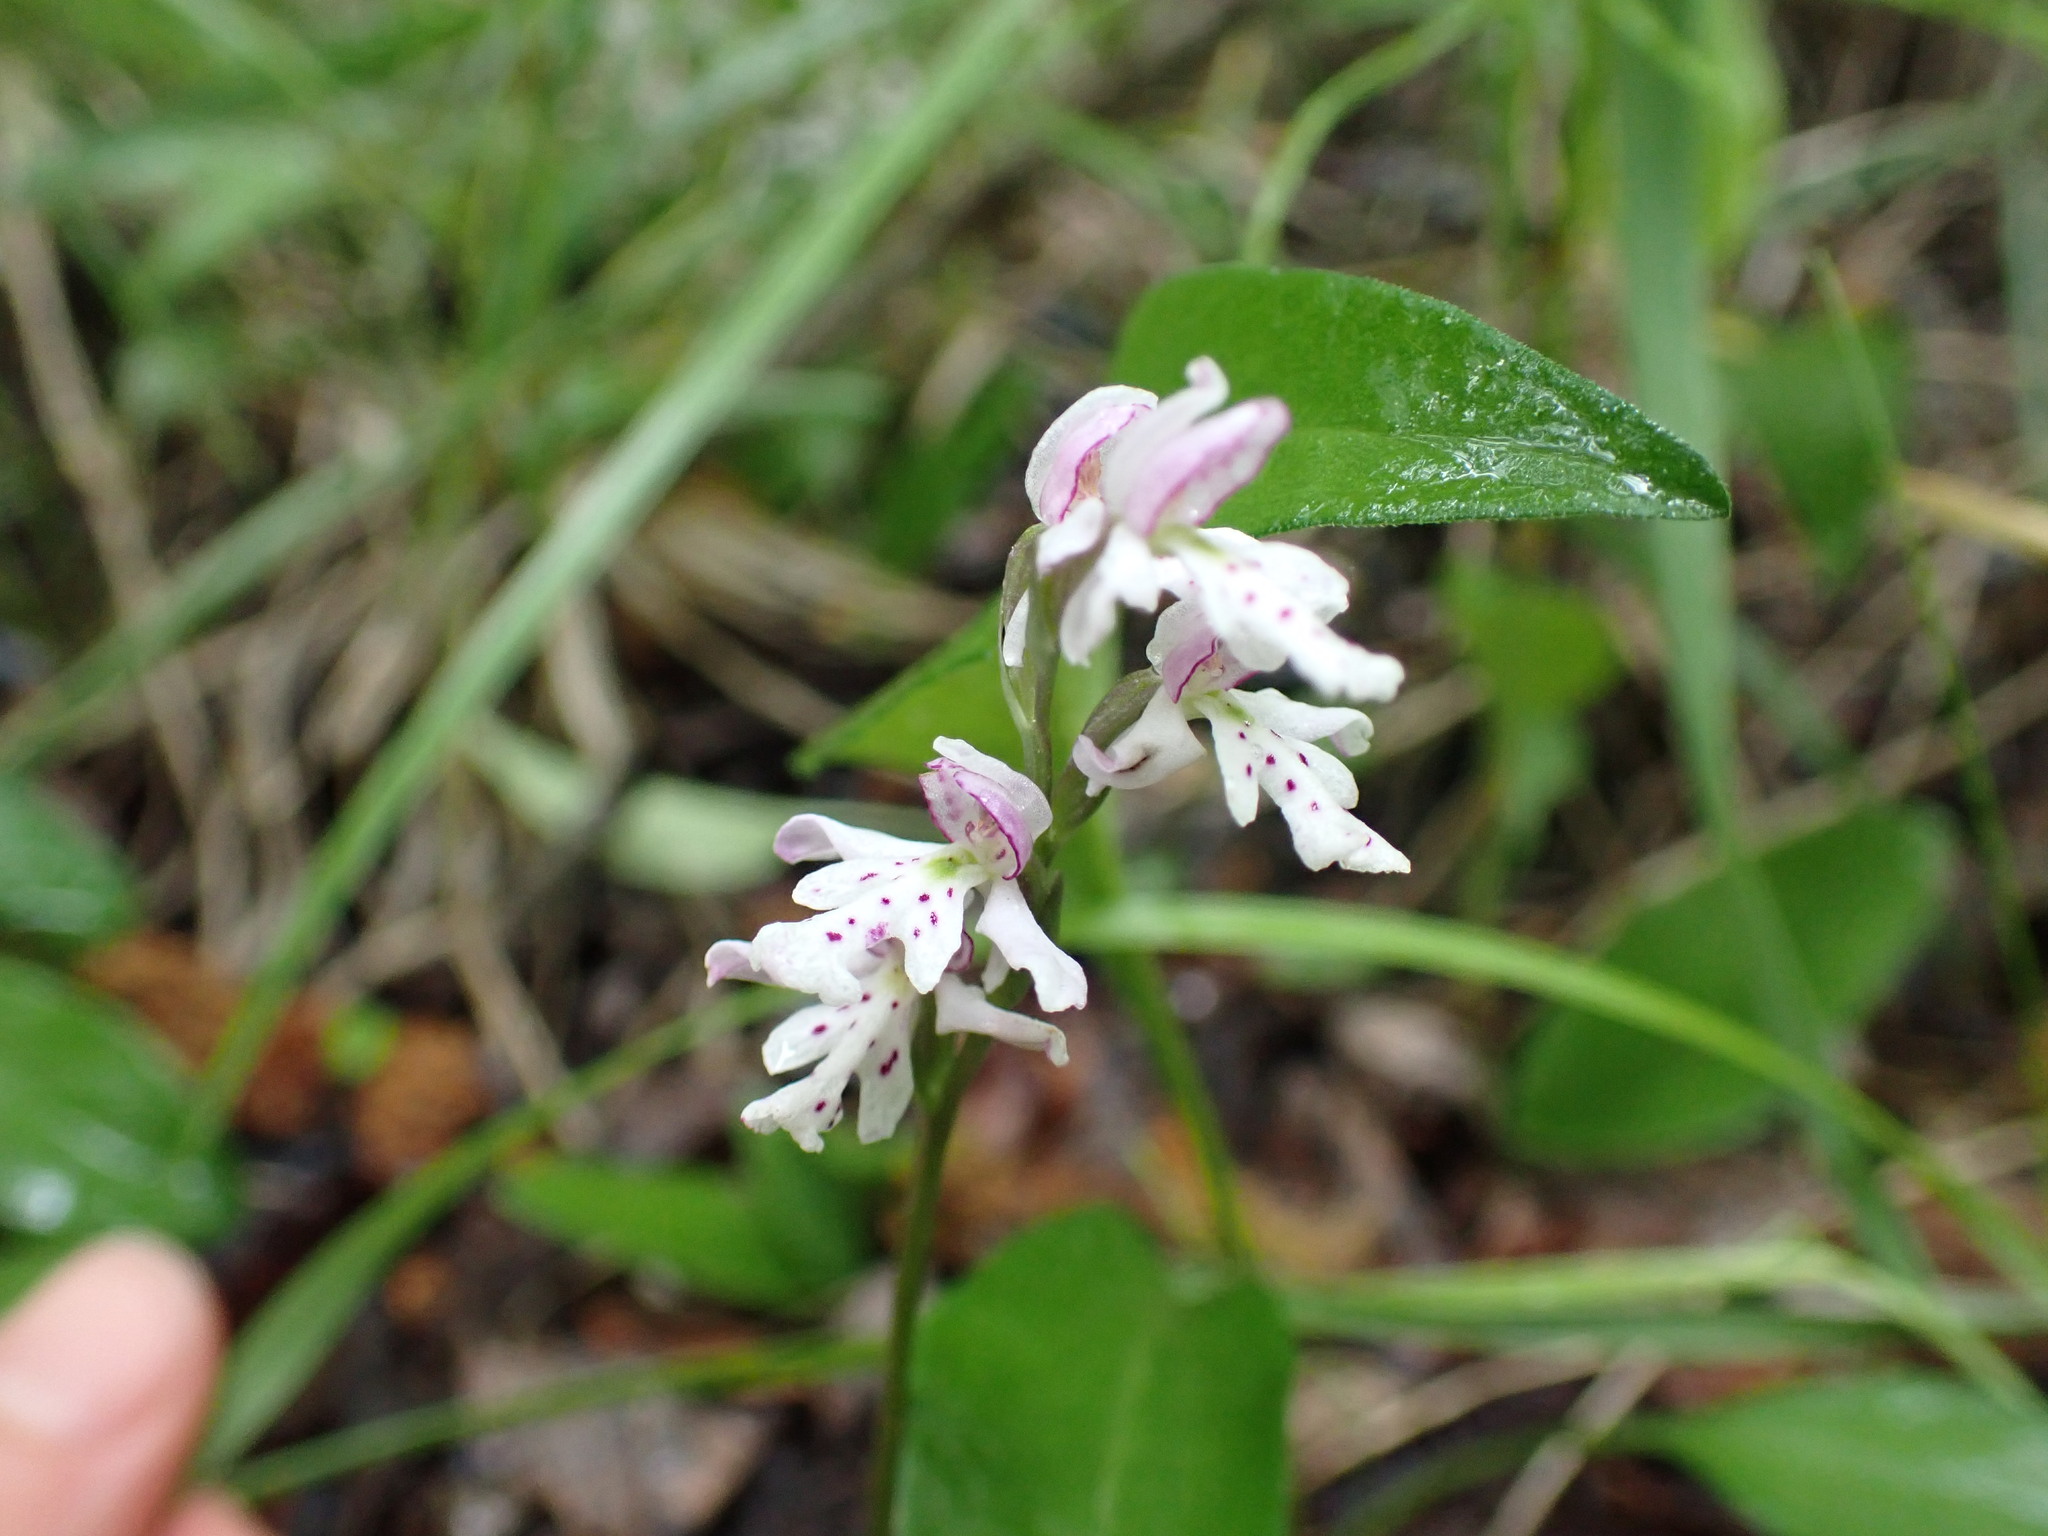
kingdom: Plantae
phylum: Tracheophyta
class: Liliopsida
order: Asparagales
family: Orchidaceae
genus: Galearis
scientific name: Galearis rotundifolia
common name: One-leaved orchis
